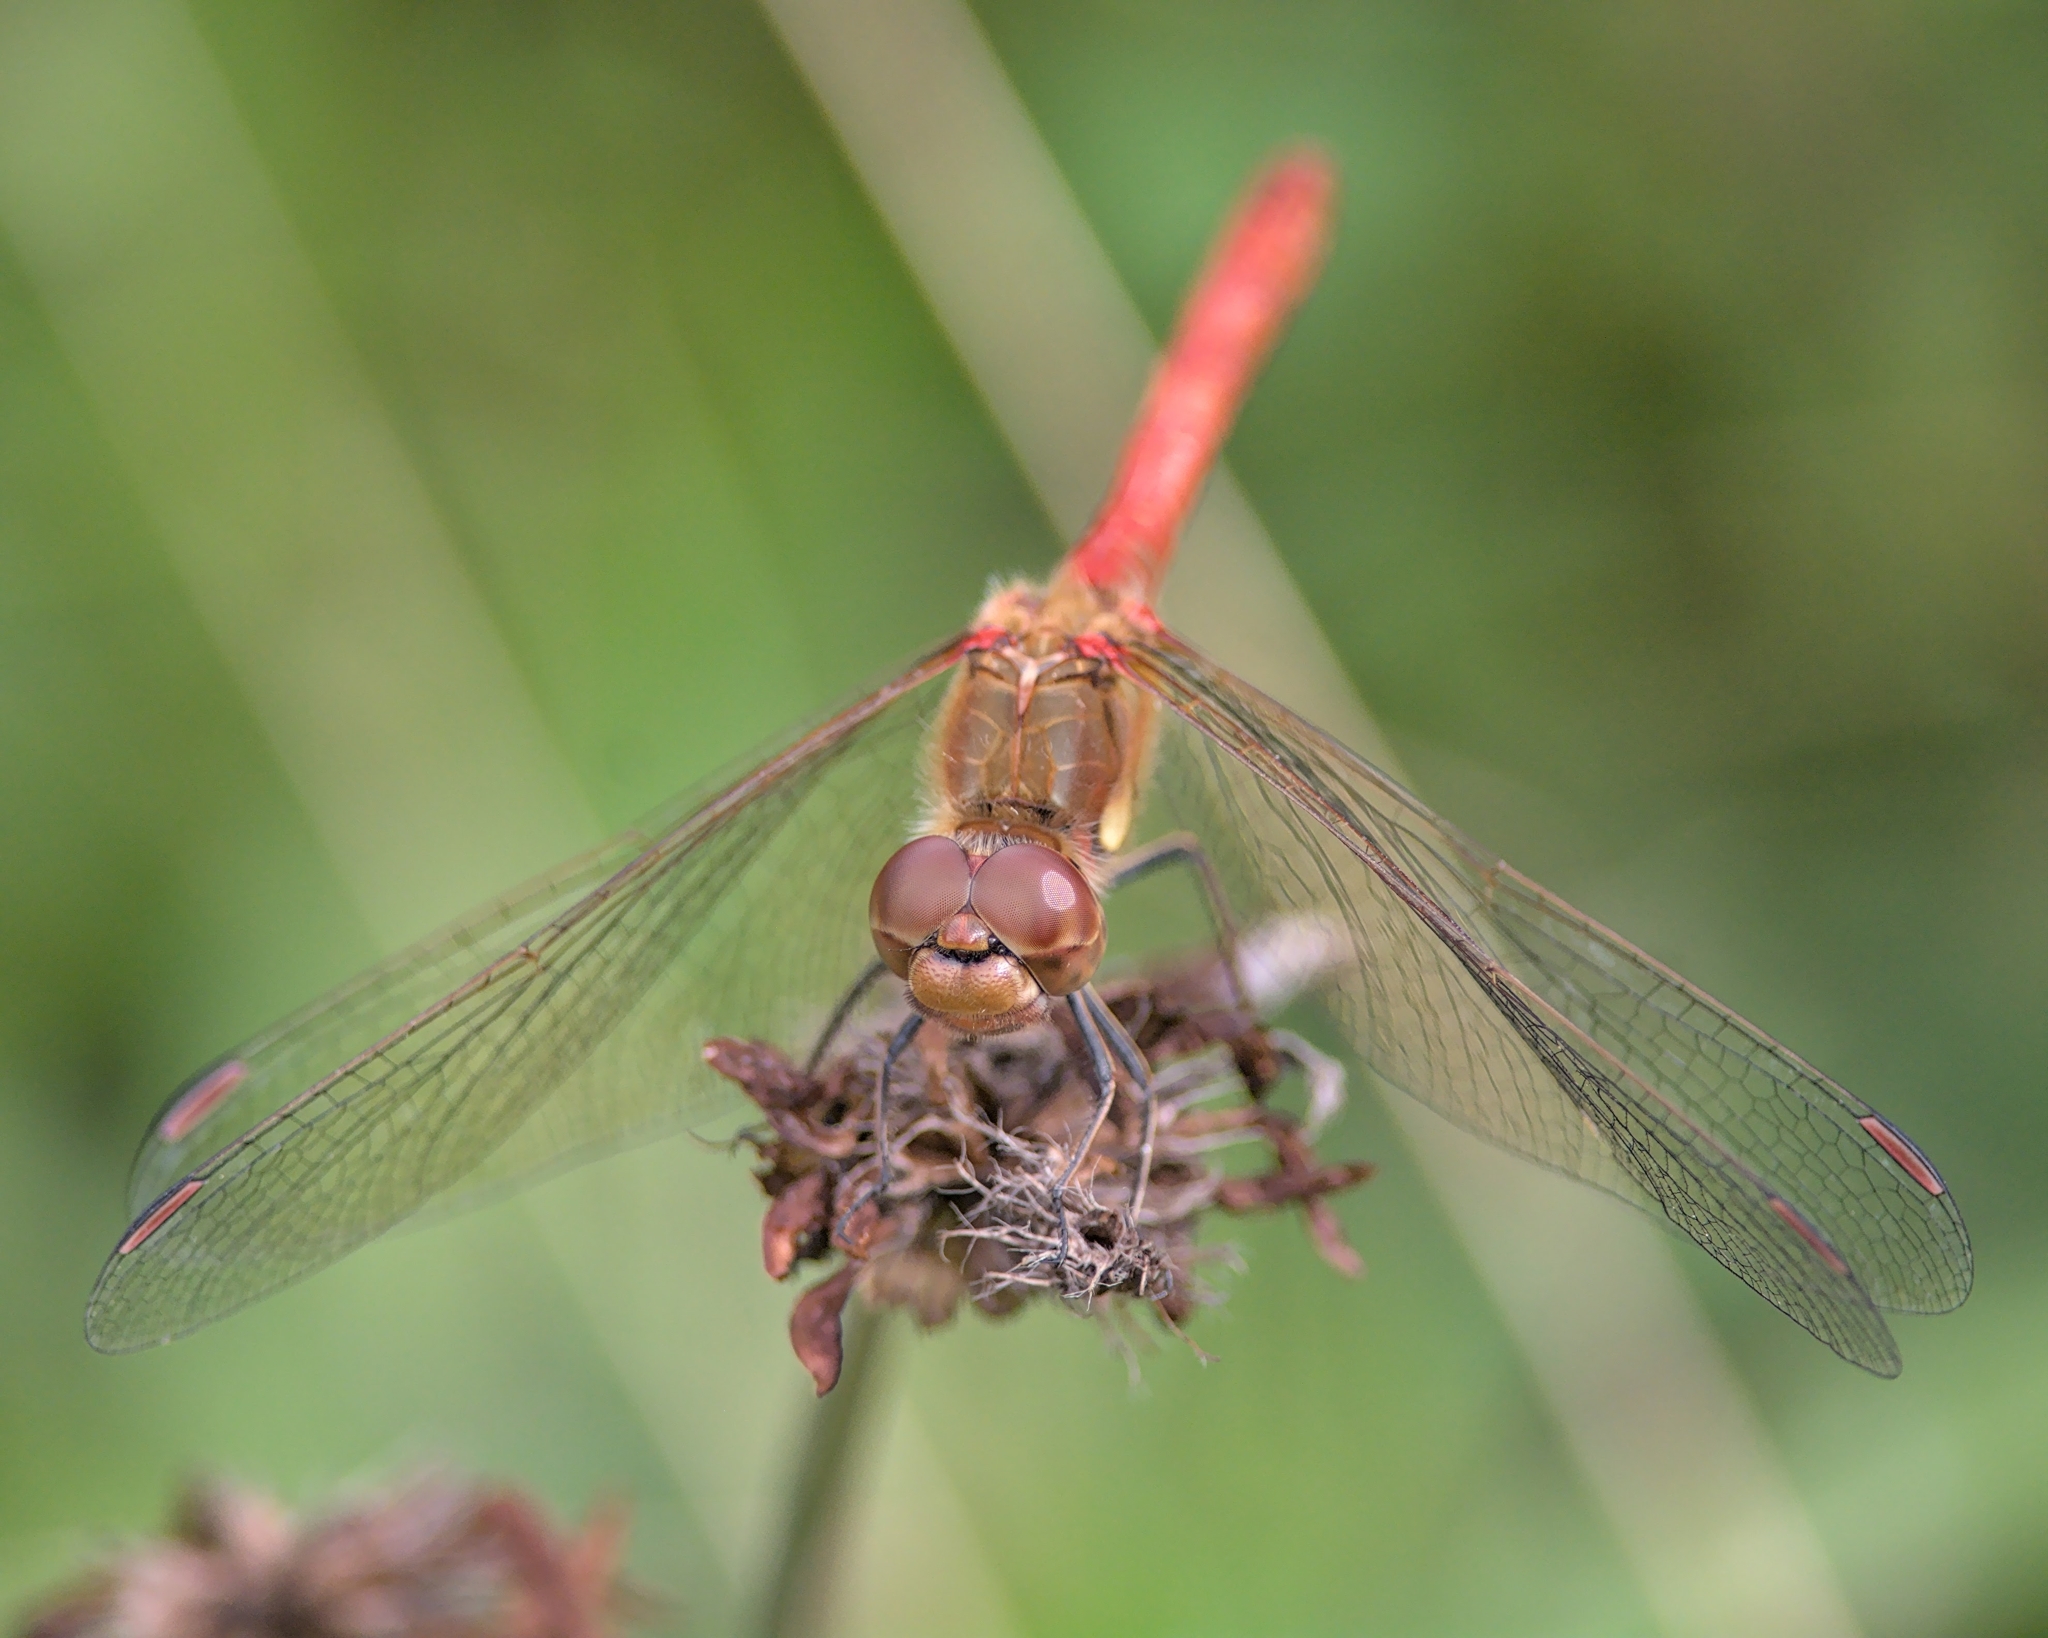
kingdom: Animalia
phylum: Arthropoda
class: Insecta
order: Odonata
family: Libellulidae
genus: Sympetrum
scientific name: Sympetrum striolatum
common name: Common darter
